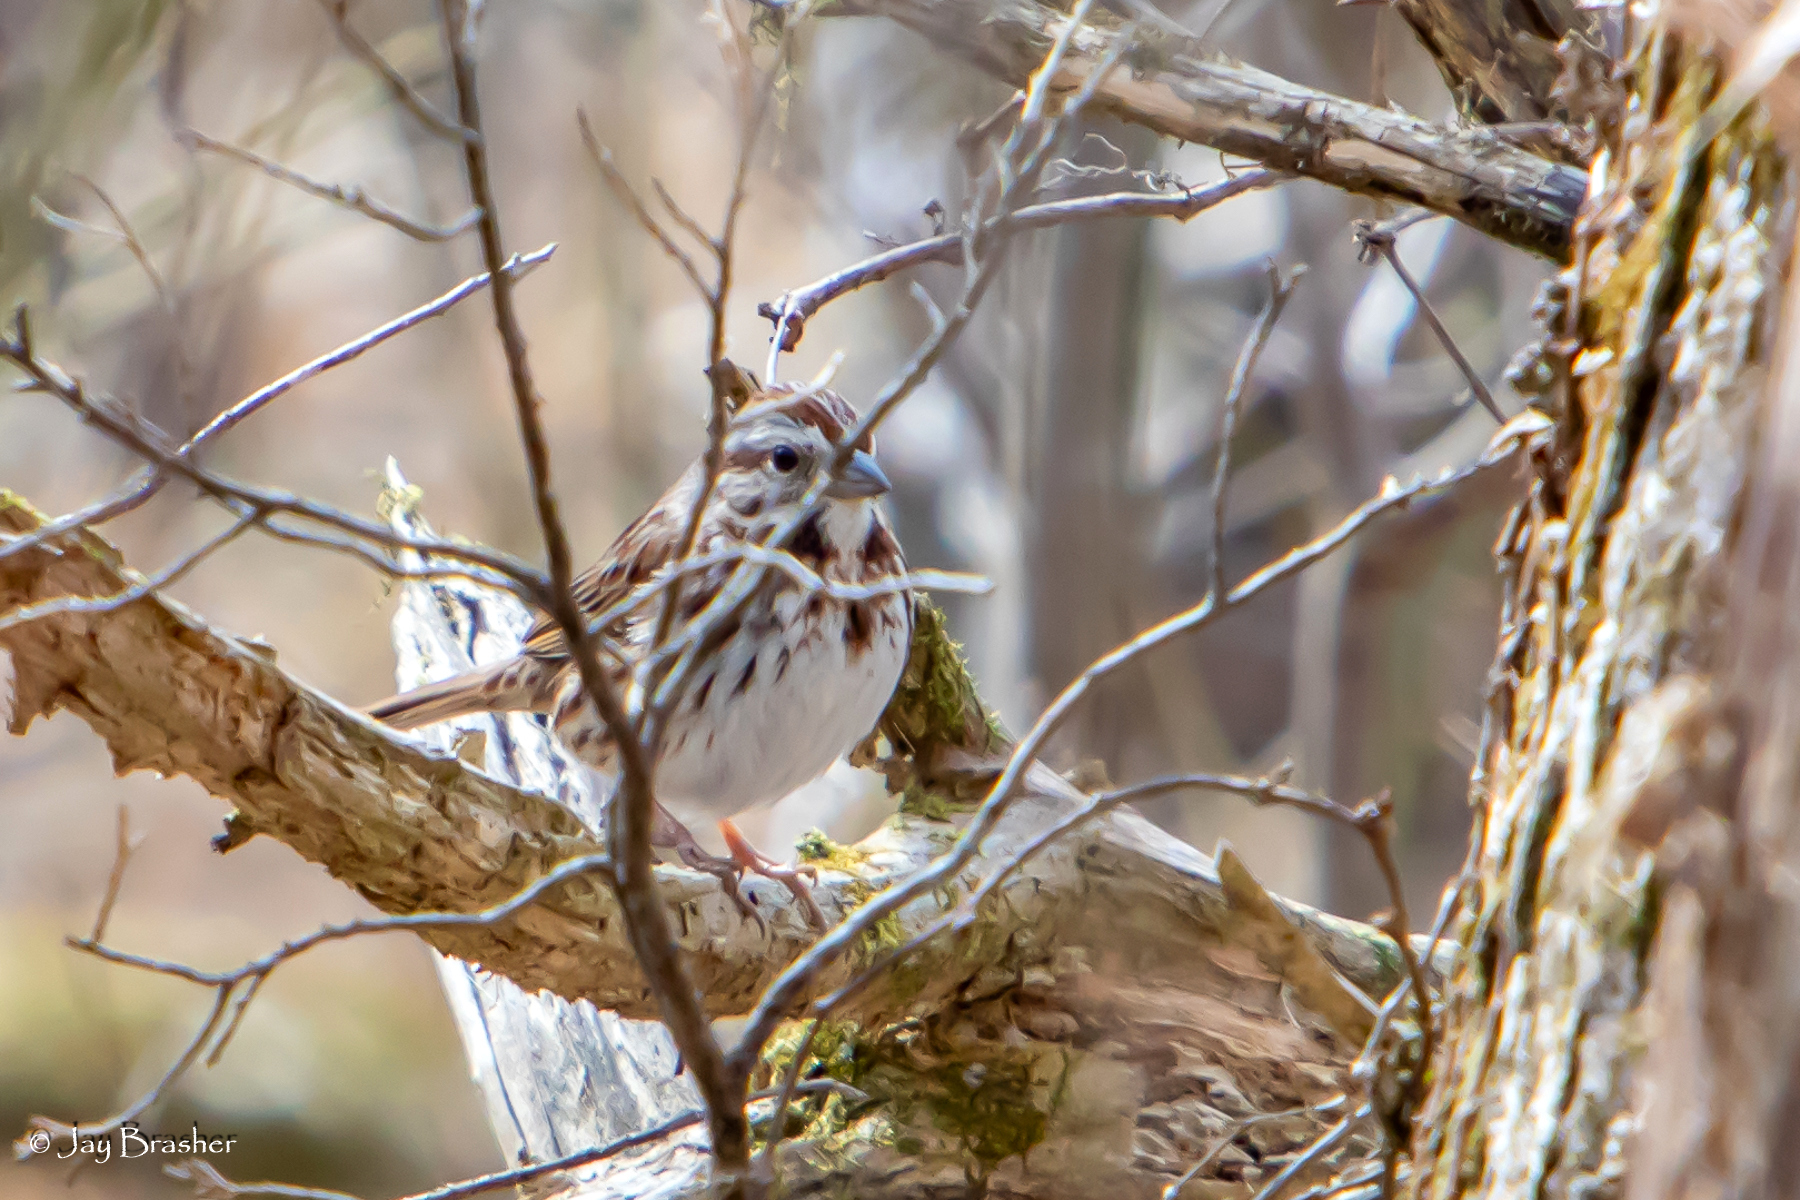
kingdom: Animalia
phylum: Chordata
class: Aves
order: Passeriformes
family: Passerellidae
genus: Melospiza
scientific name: Melospiza melodia
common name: Song sparrow
